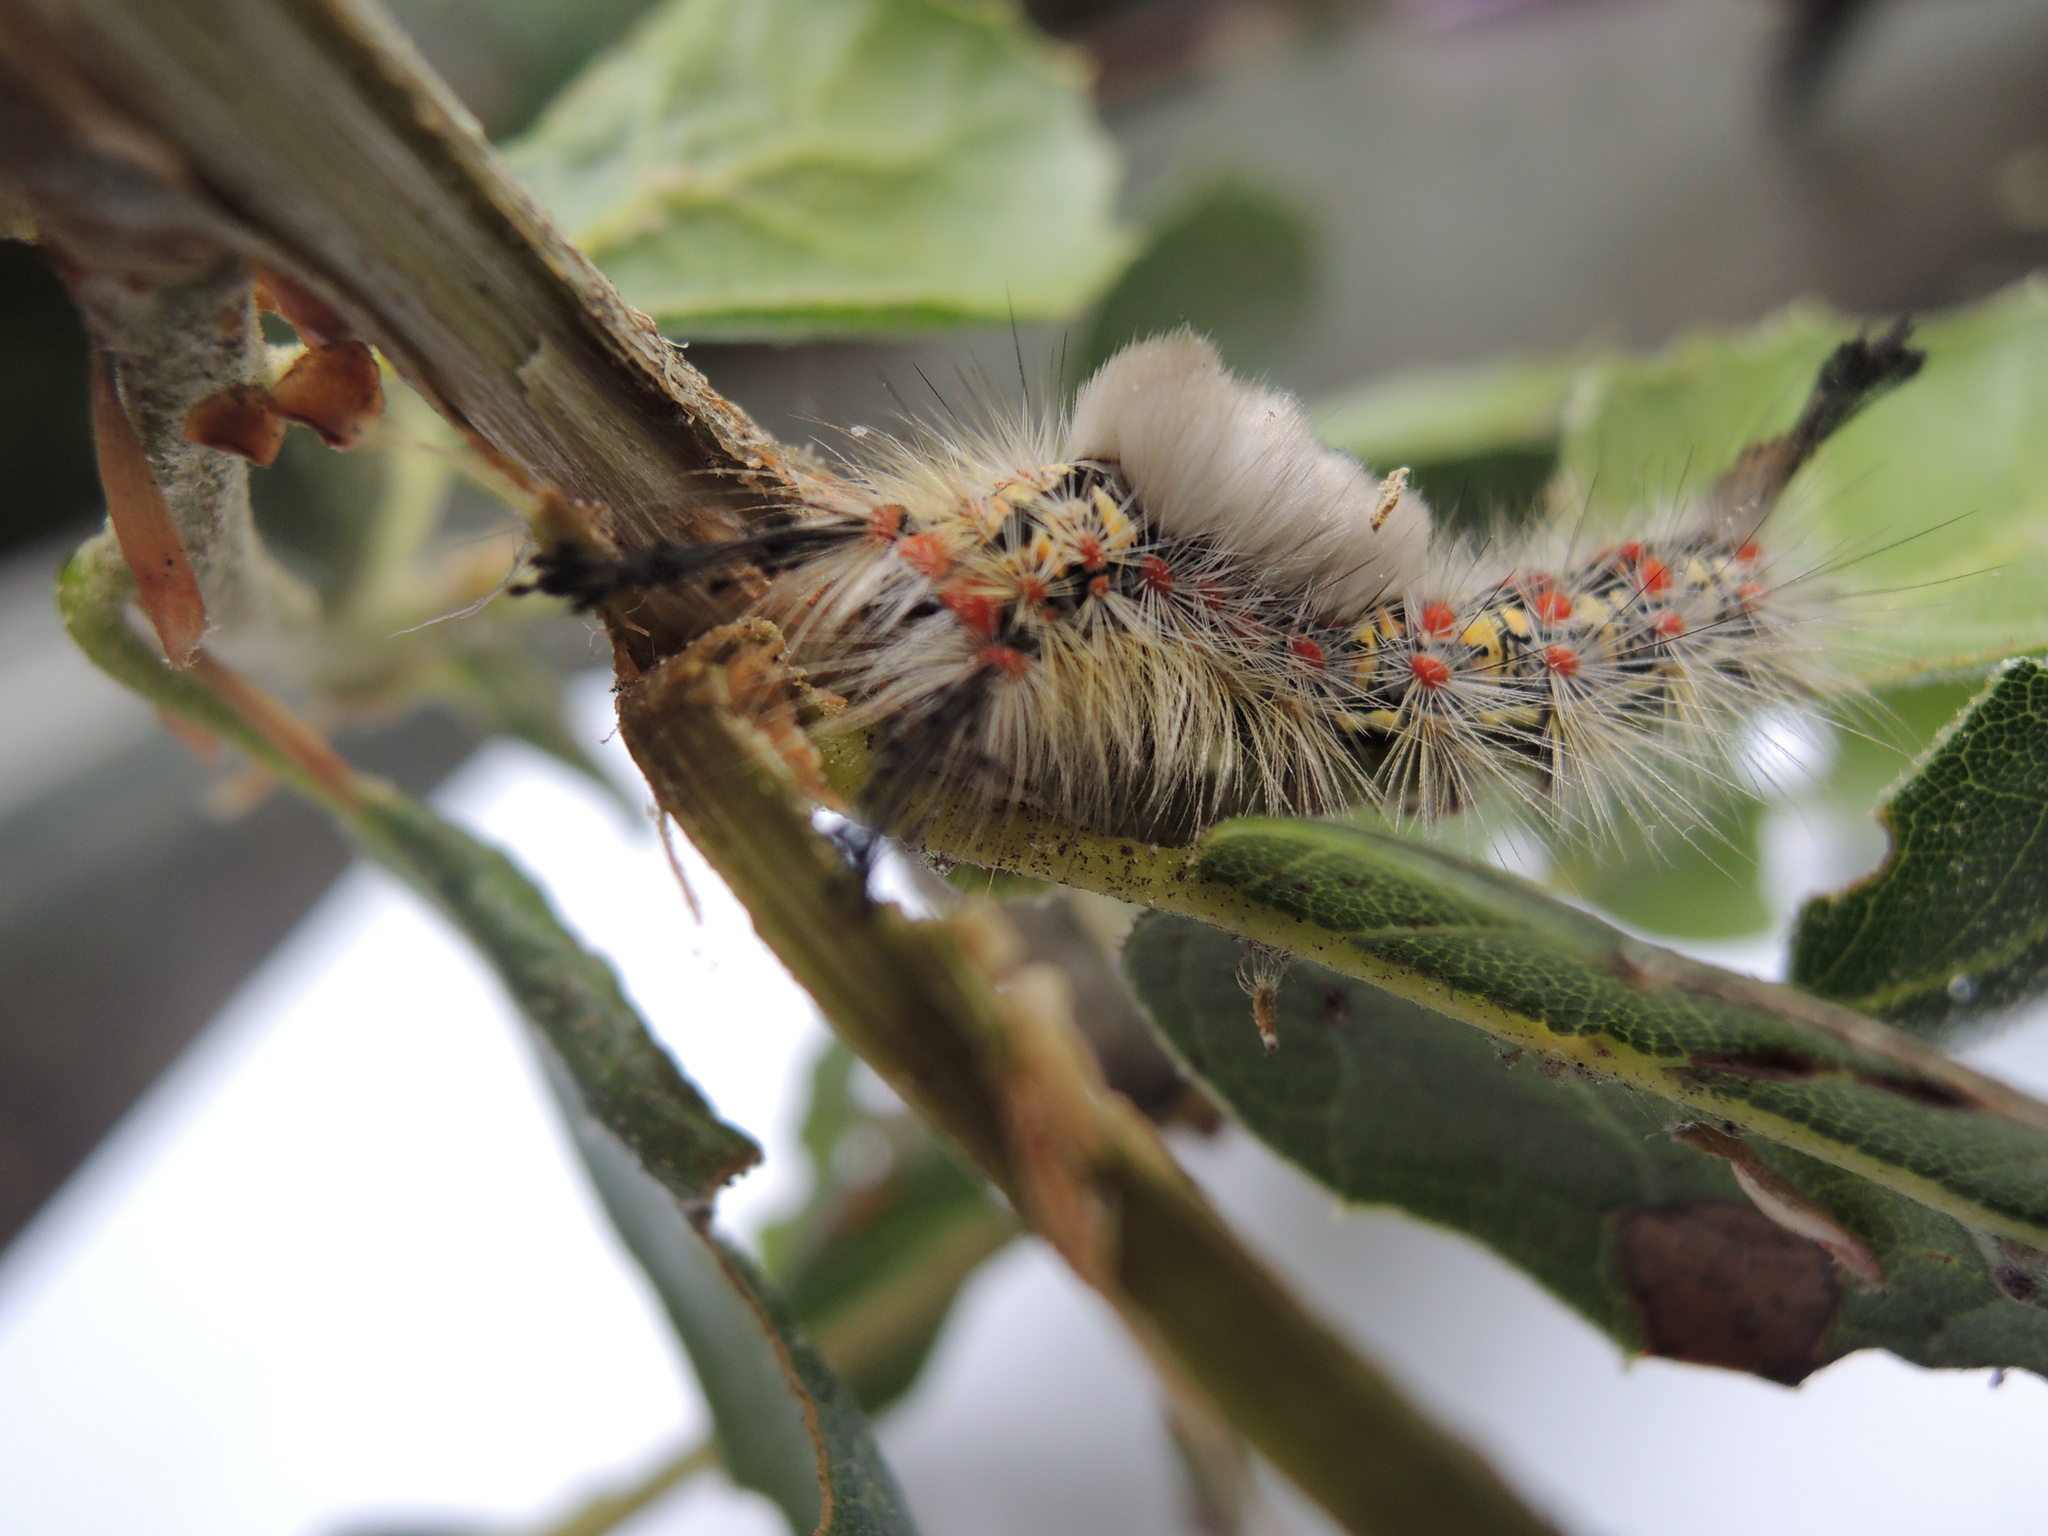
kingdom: Animalia
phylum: Arthropoda
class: Insecta
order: Lepidoptera
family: Erebidae
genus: Orgyia
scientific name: Orgyia vetusta
